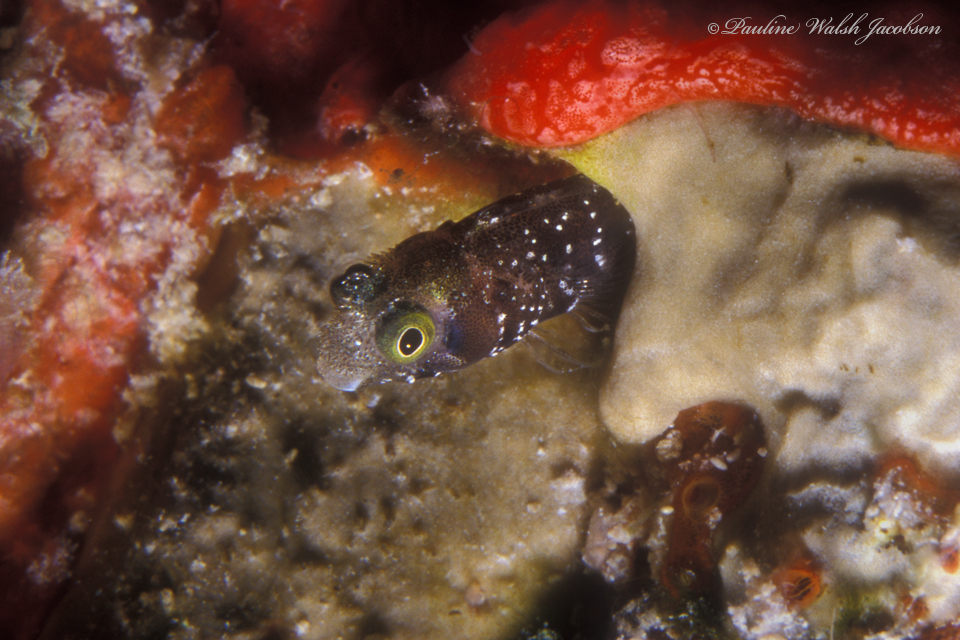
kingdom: Animalia
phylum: Chordata
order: Perciformes
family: Chaenopsidae
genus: Acanthemblemaria
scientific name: Acanthemblemaria spinosa
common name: Spinyhead blenny
